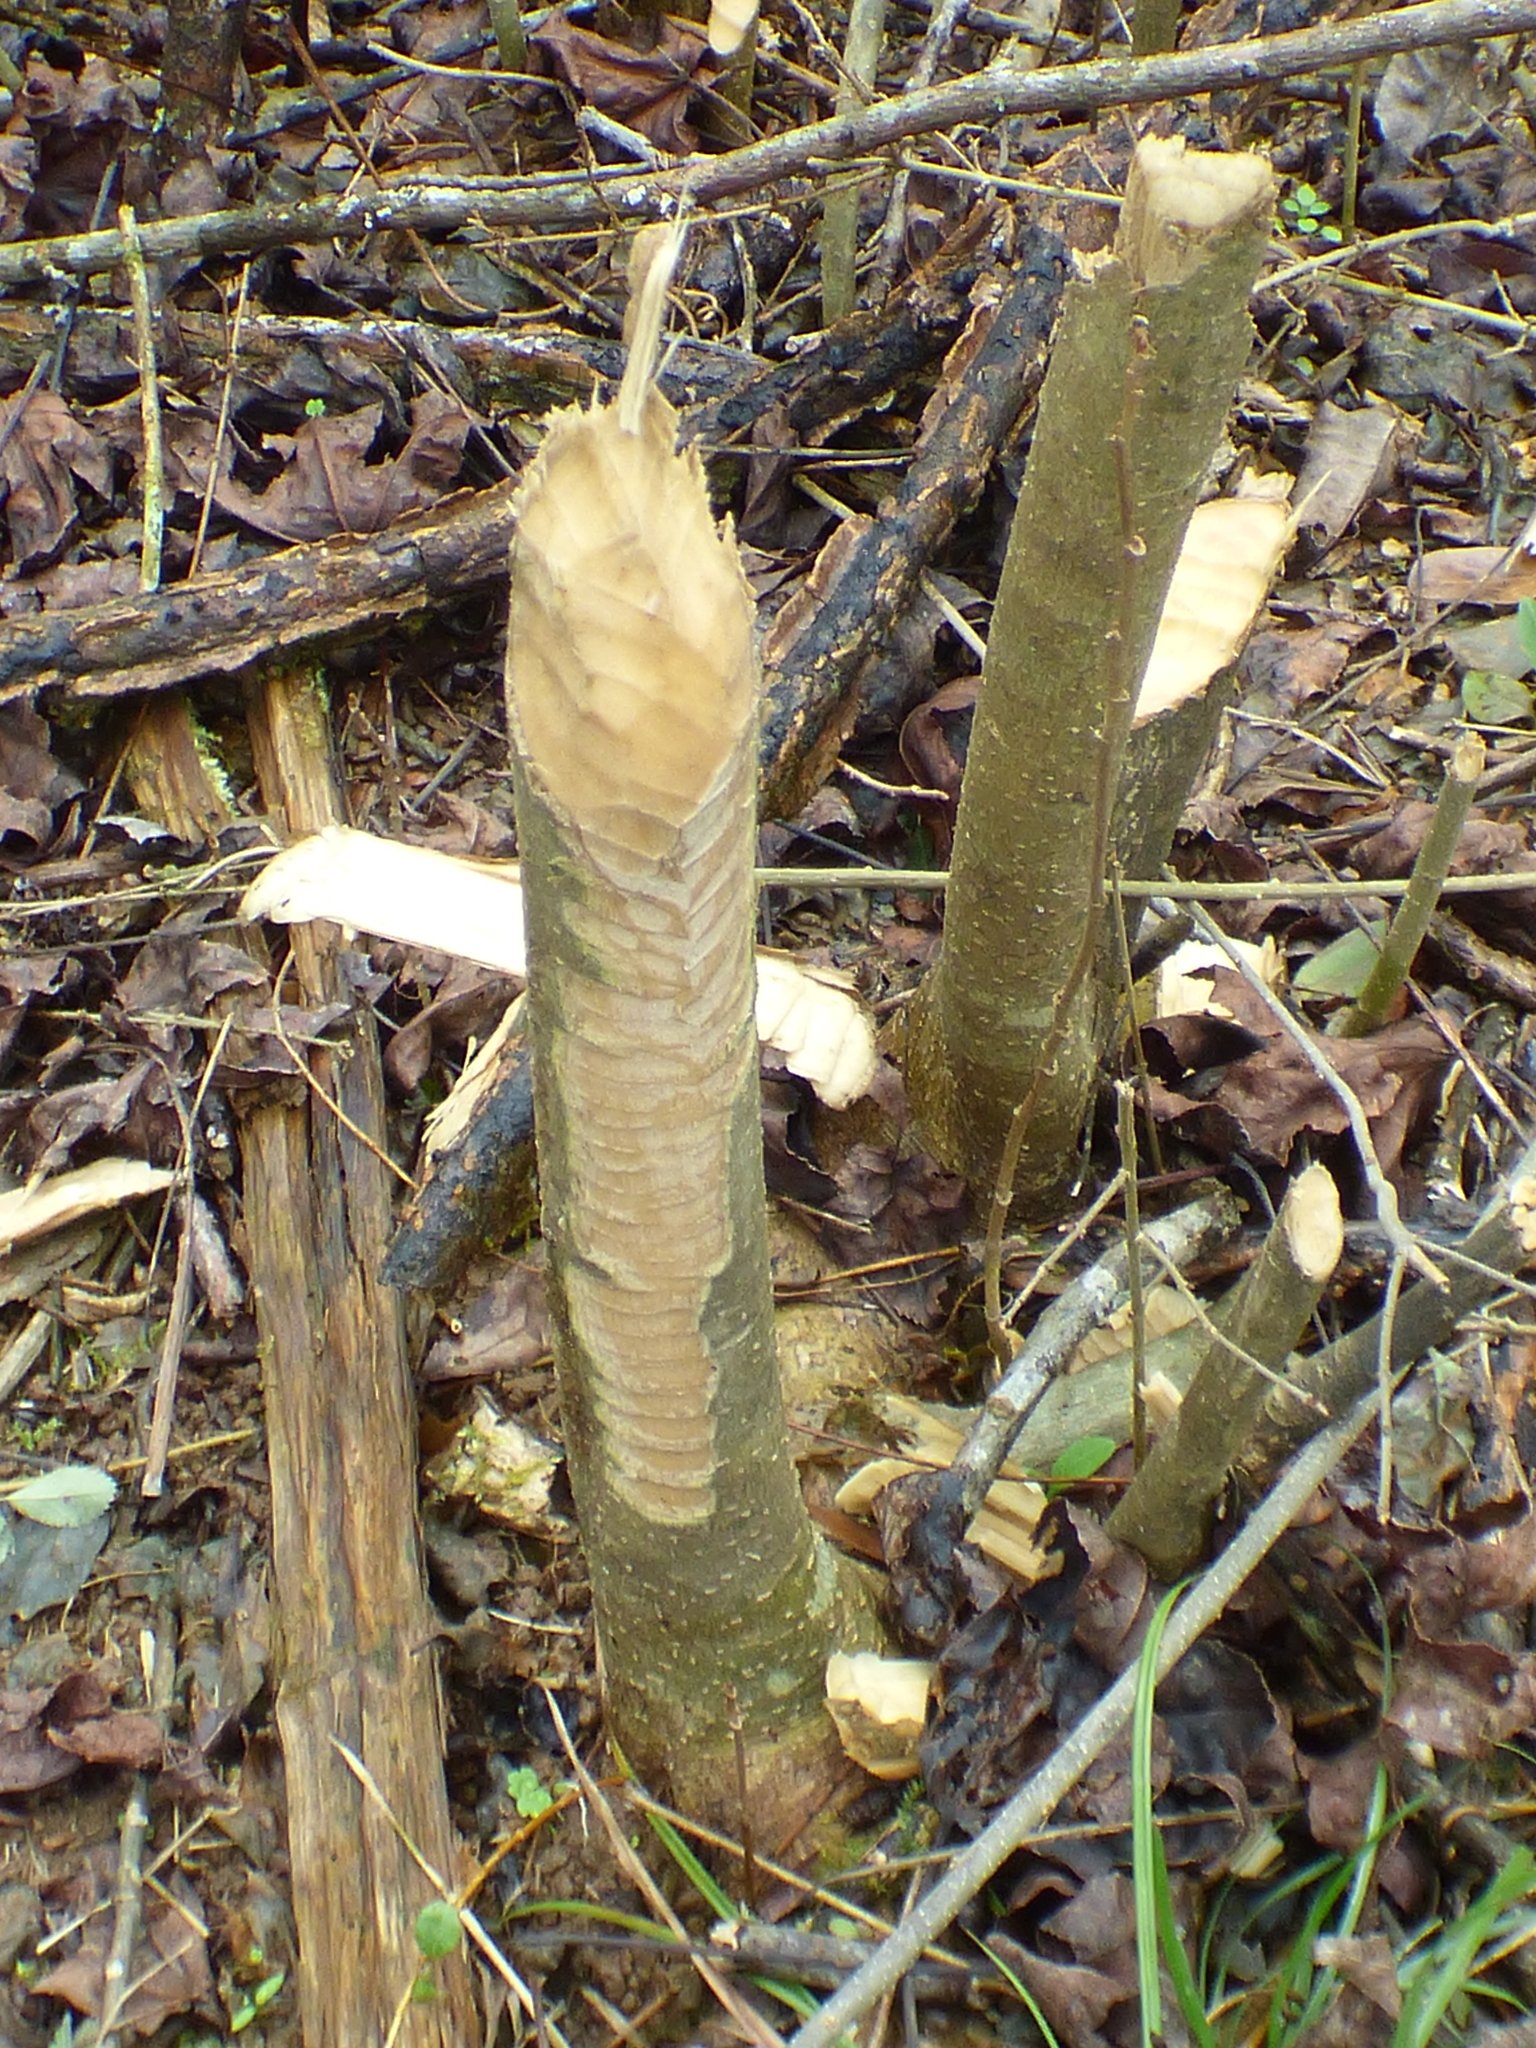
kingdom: Animalia
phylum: Chordata
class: Mammalia
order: Rodentia
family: Castoridae
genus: Castor
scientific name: Castor canadensis
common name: American beaver
